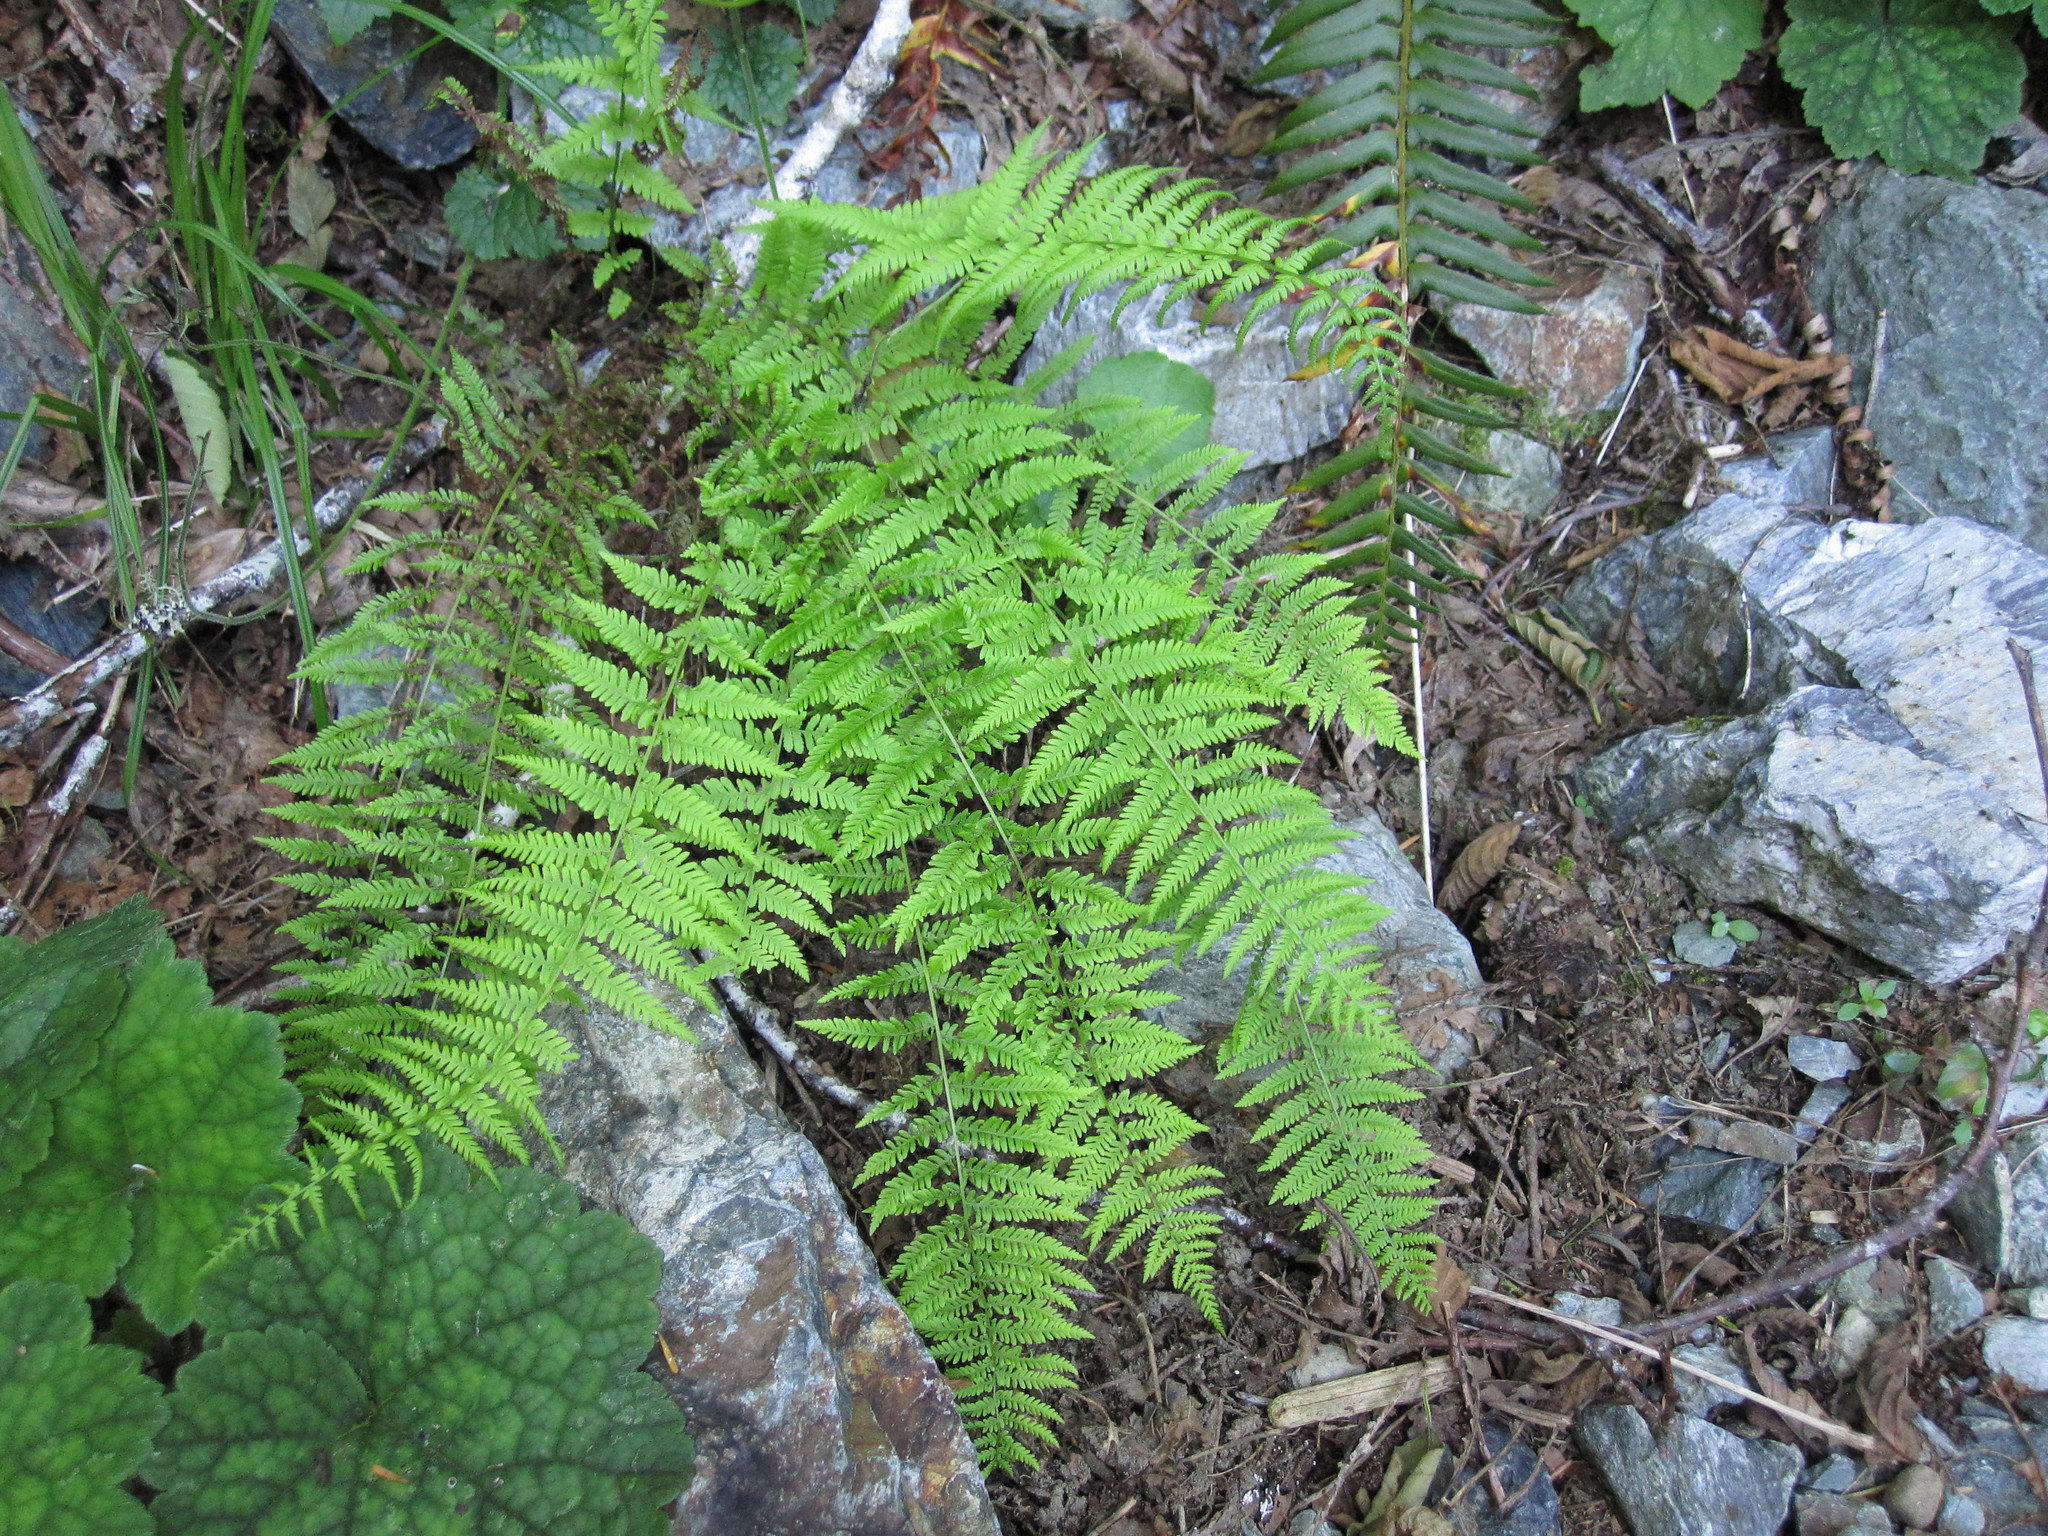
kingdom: Plantae
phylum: Tracheophyta
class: Polypodiopsida
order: Polypodiales
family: Thelypteridaceae
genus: Amauropelta
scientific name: Amauropelta nevadensis
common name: Nevada marsh fern
